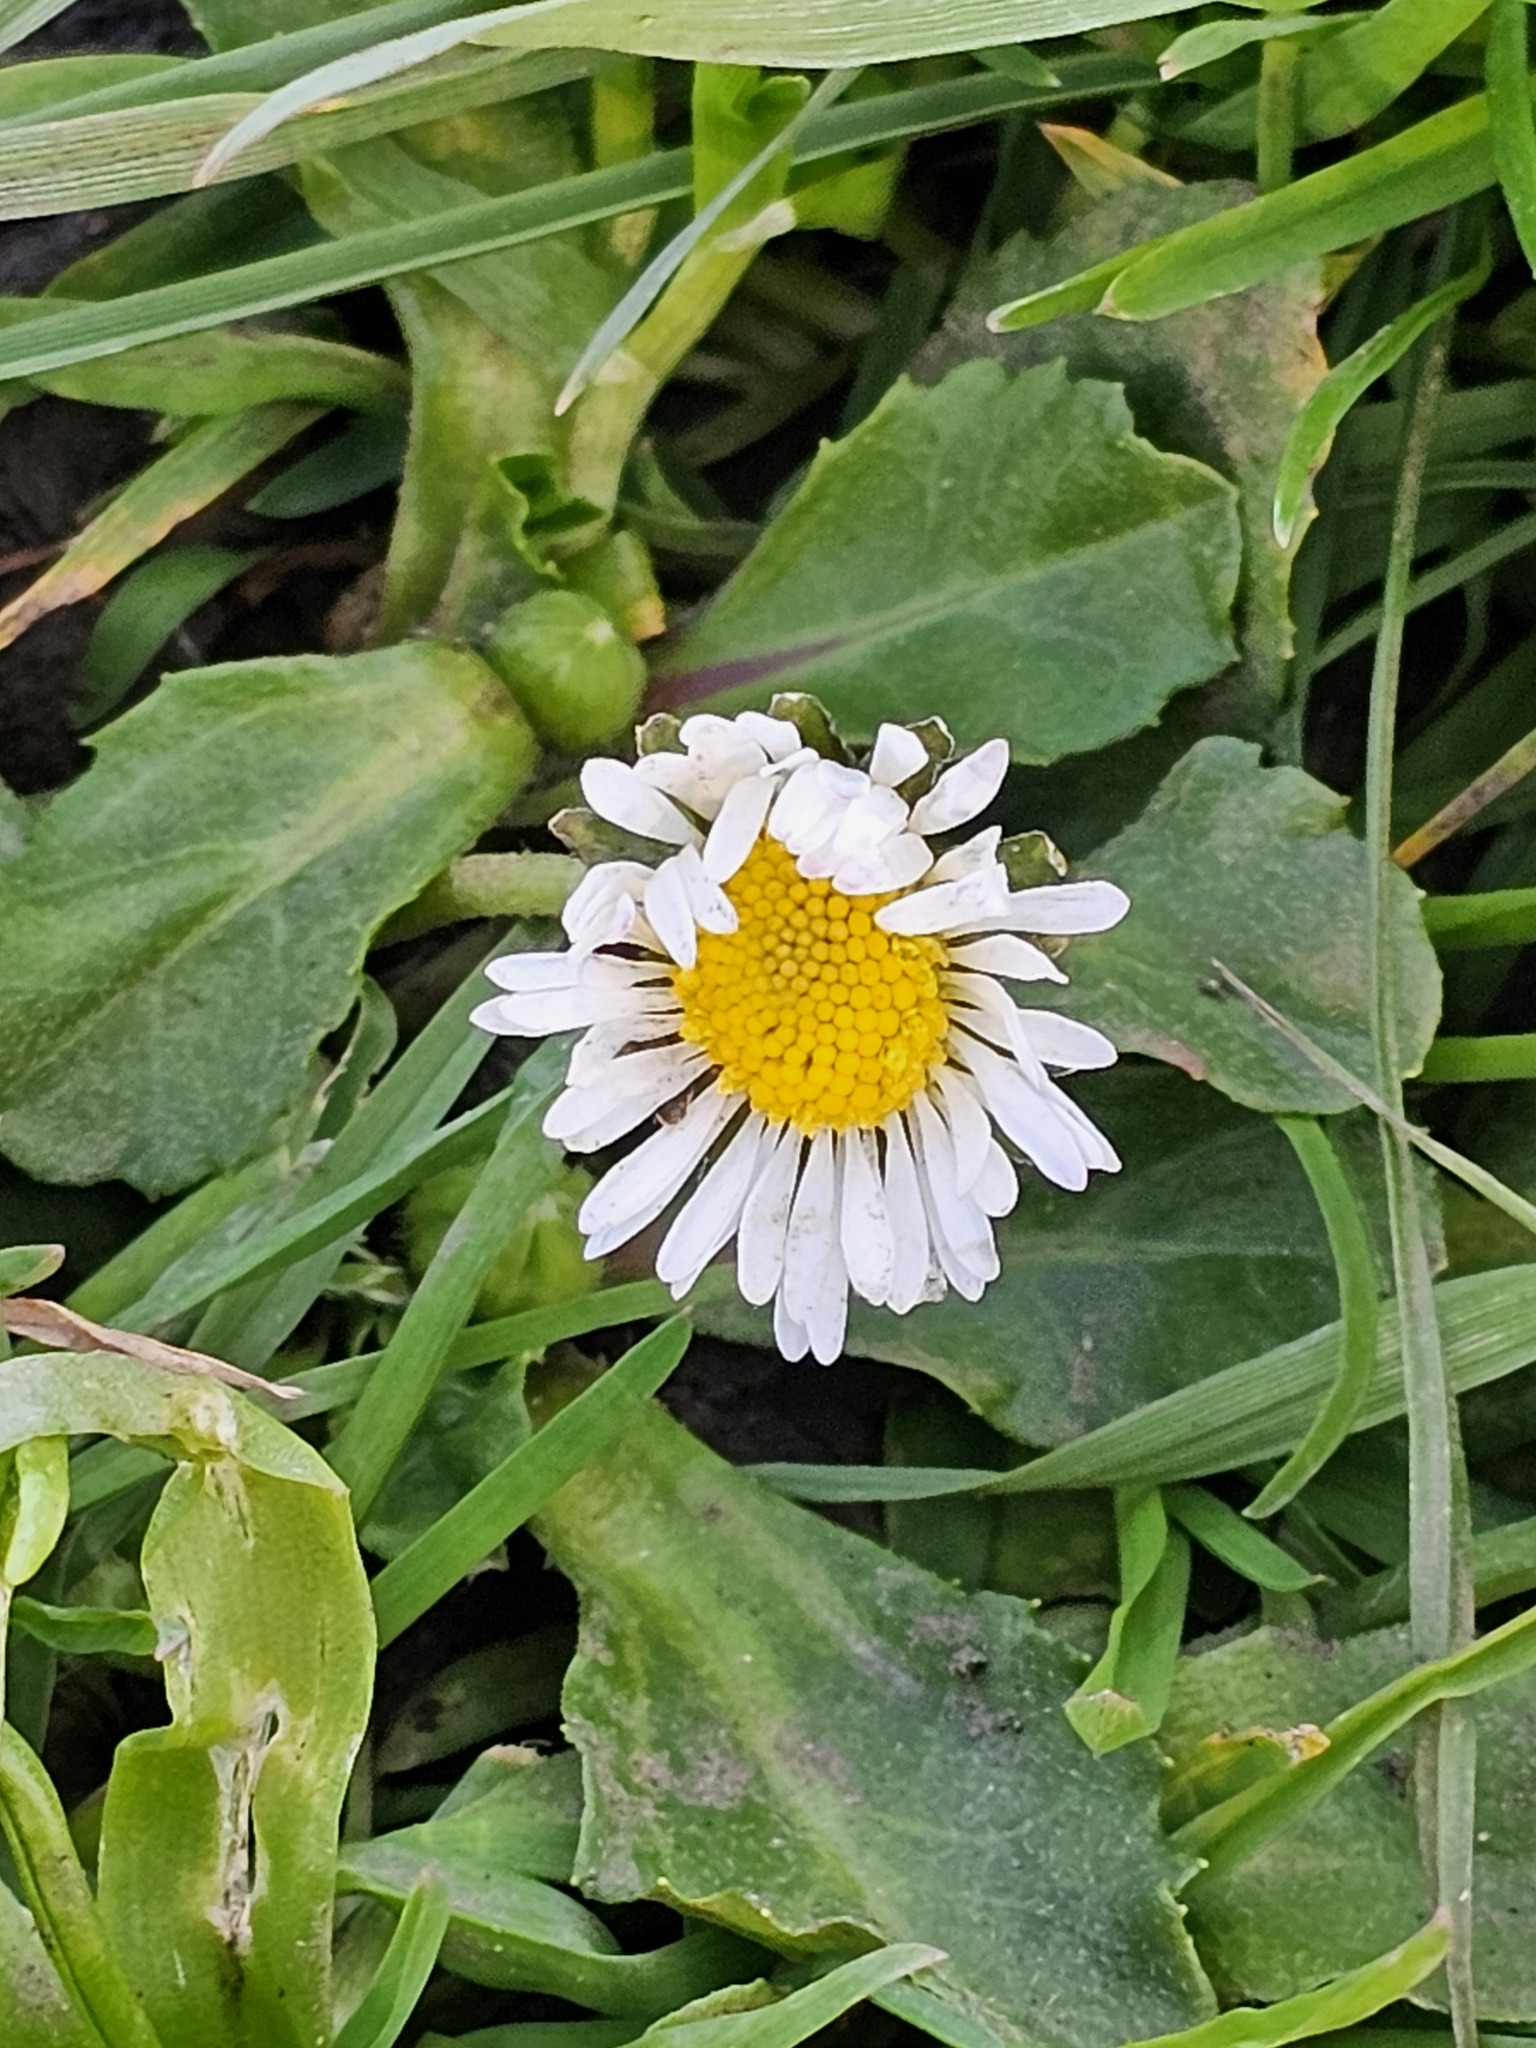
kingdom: Plantae
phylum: Tracheophyta
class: Magnoliopsida
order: Asterales
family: Asteraceae
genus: Bellis
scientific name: Bellis perennis
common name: Lawndaisy
